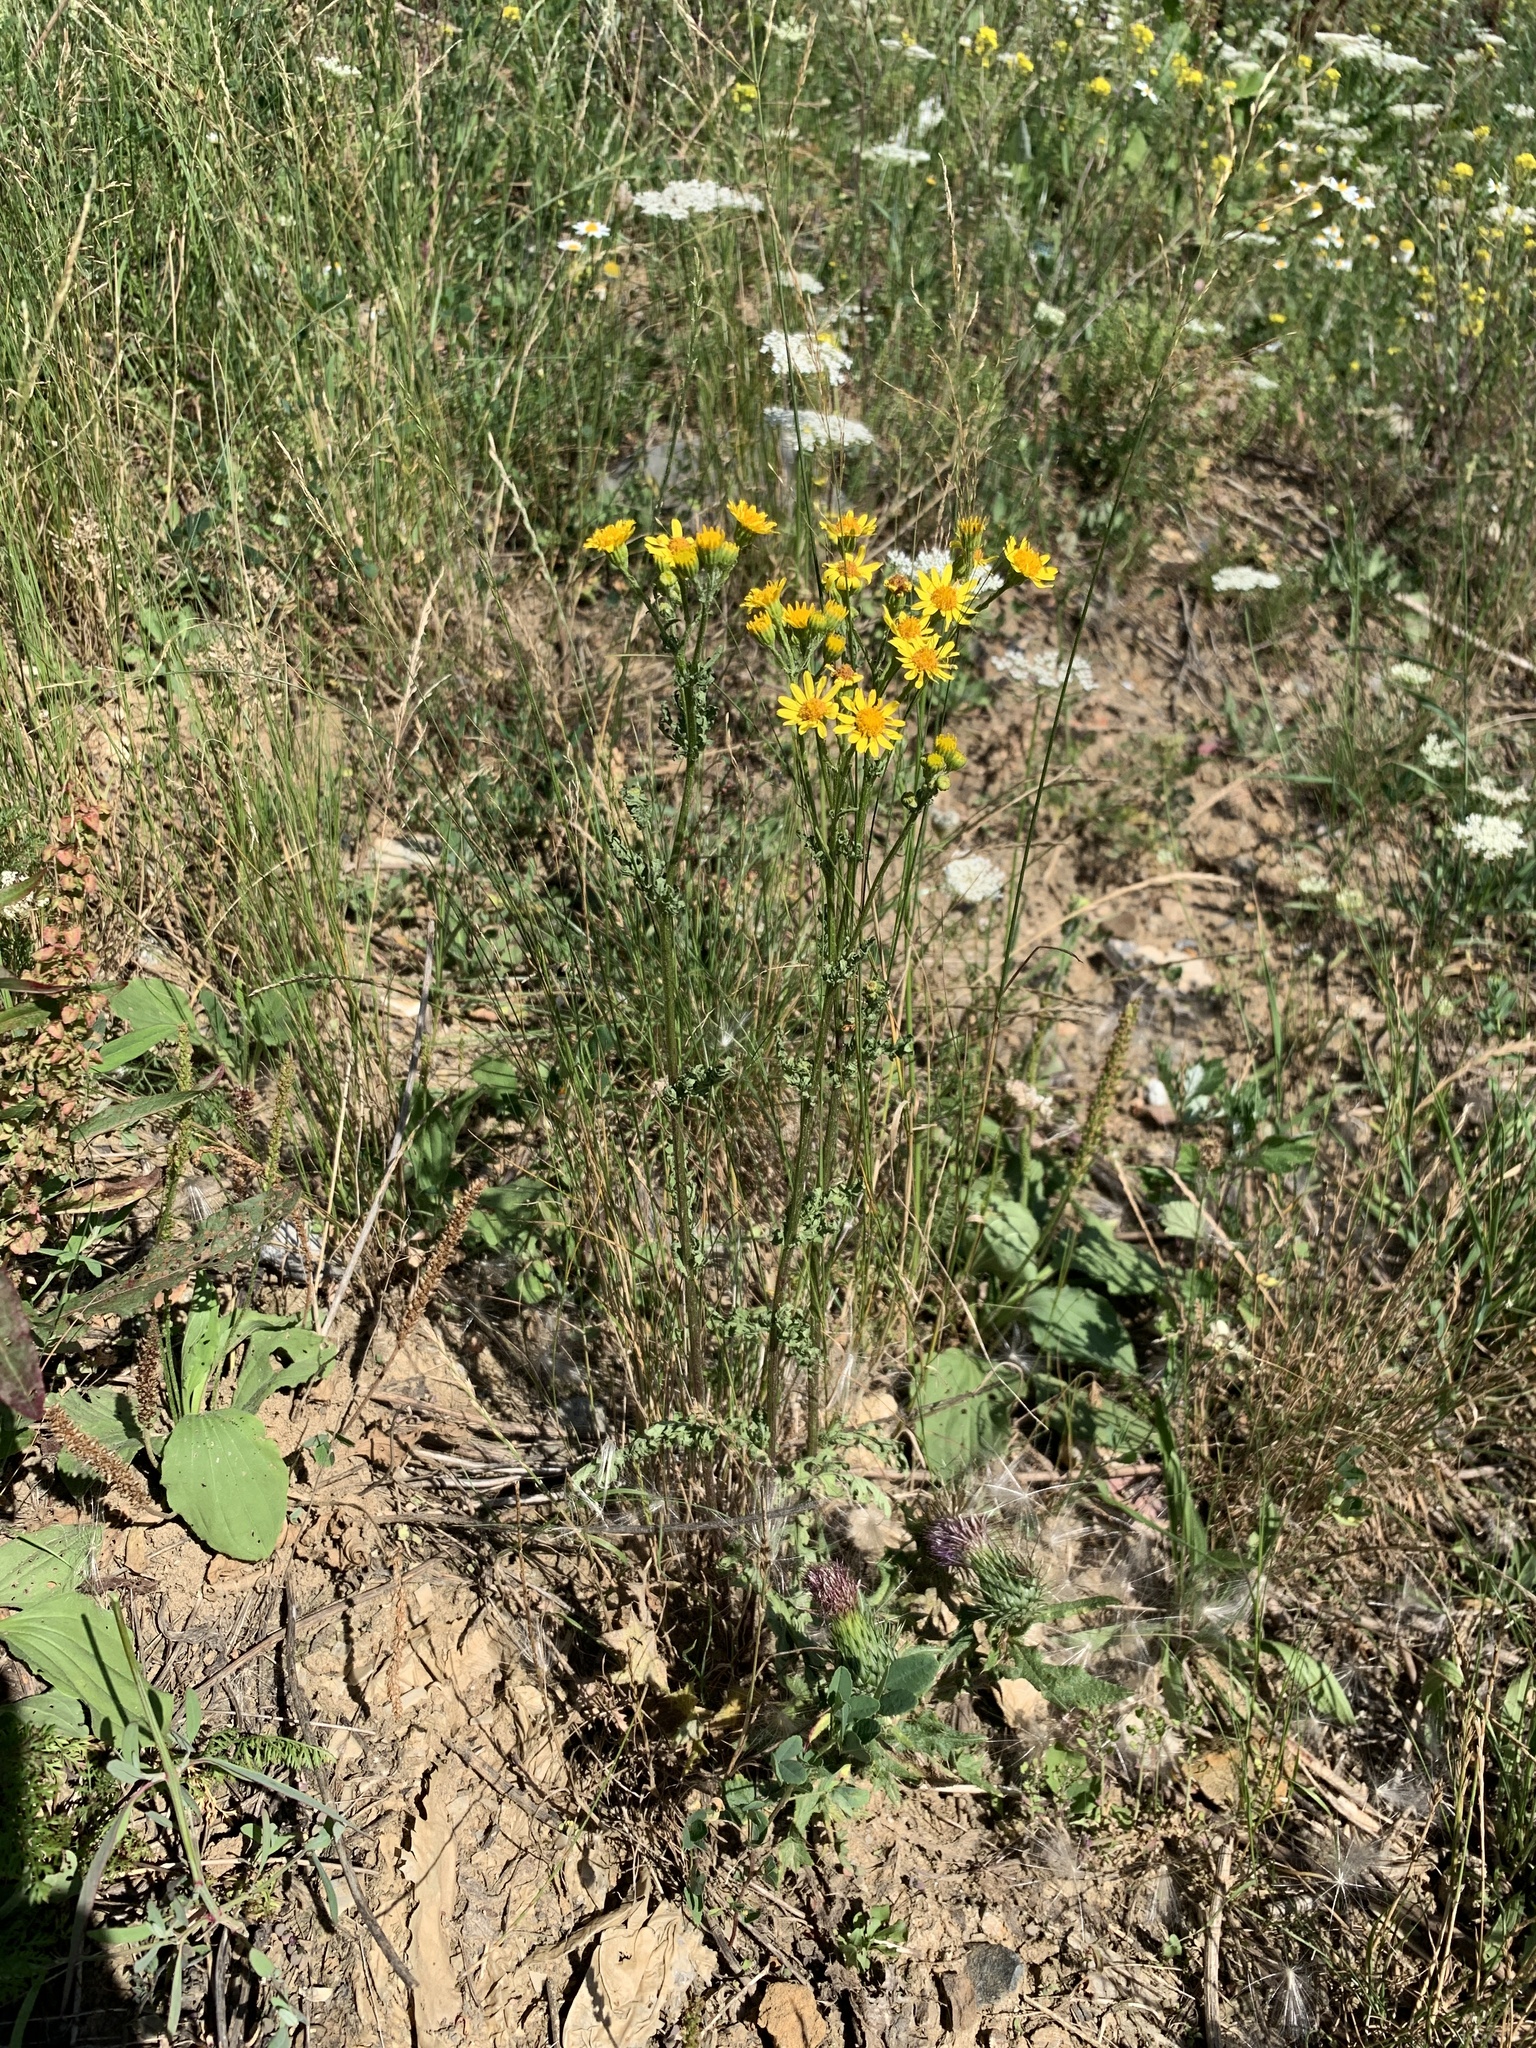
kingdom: Plantae
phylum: Tracheophyta
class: Magnoliopsida
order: Asterales
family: Asteraceae
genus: Jacobaea
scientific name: Jacobaea vulgaris
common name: Stinking willie
